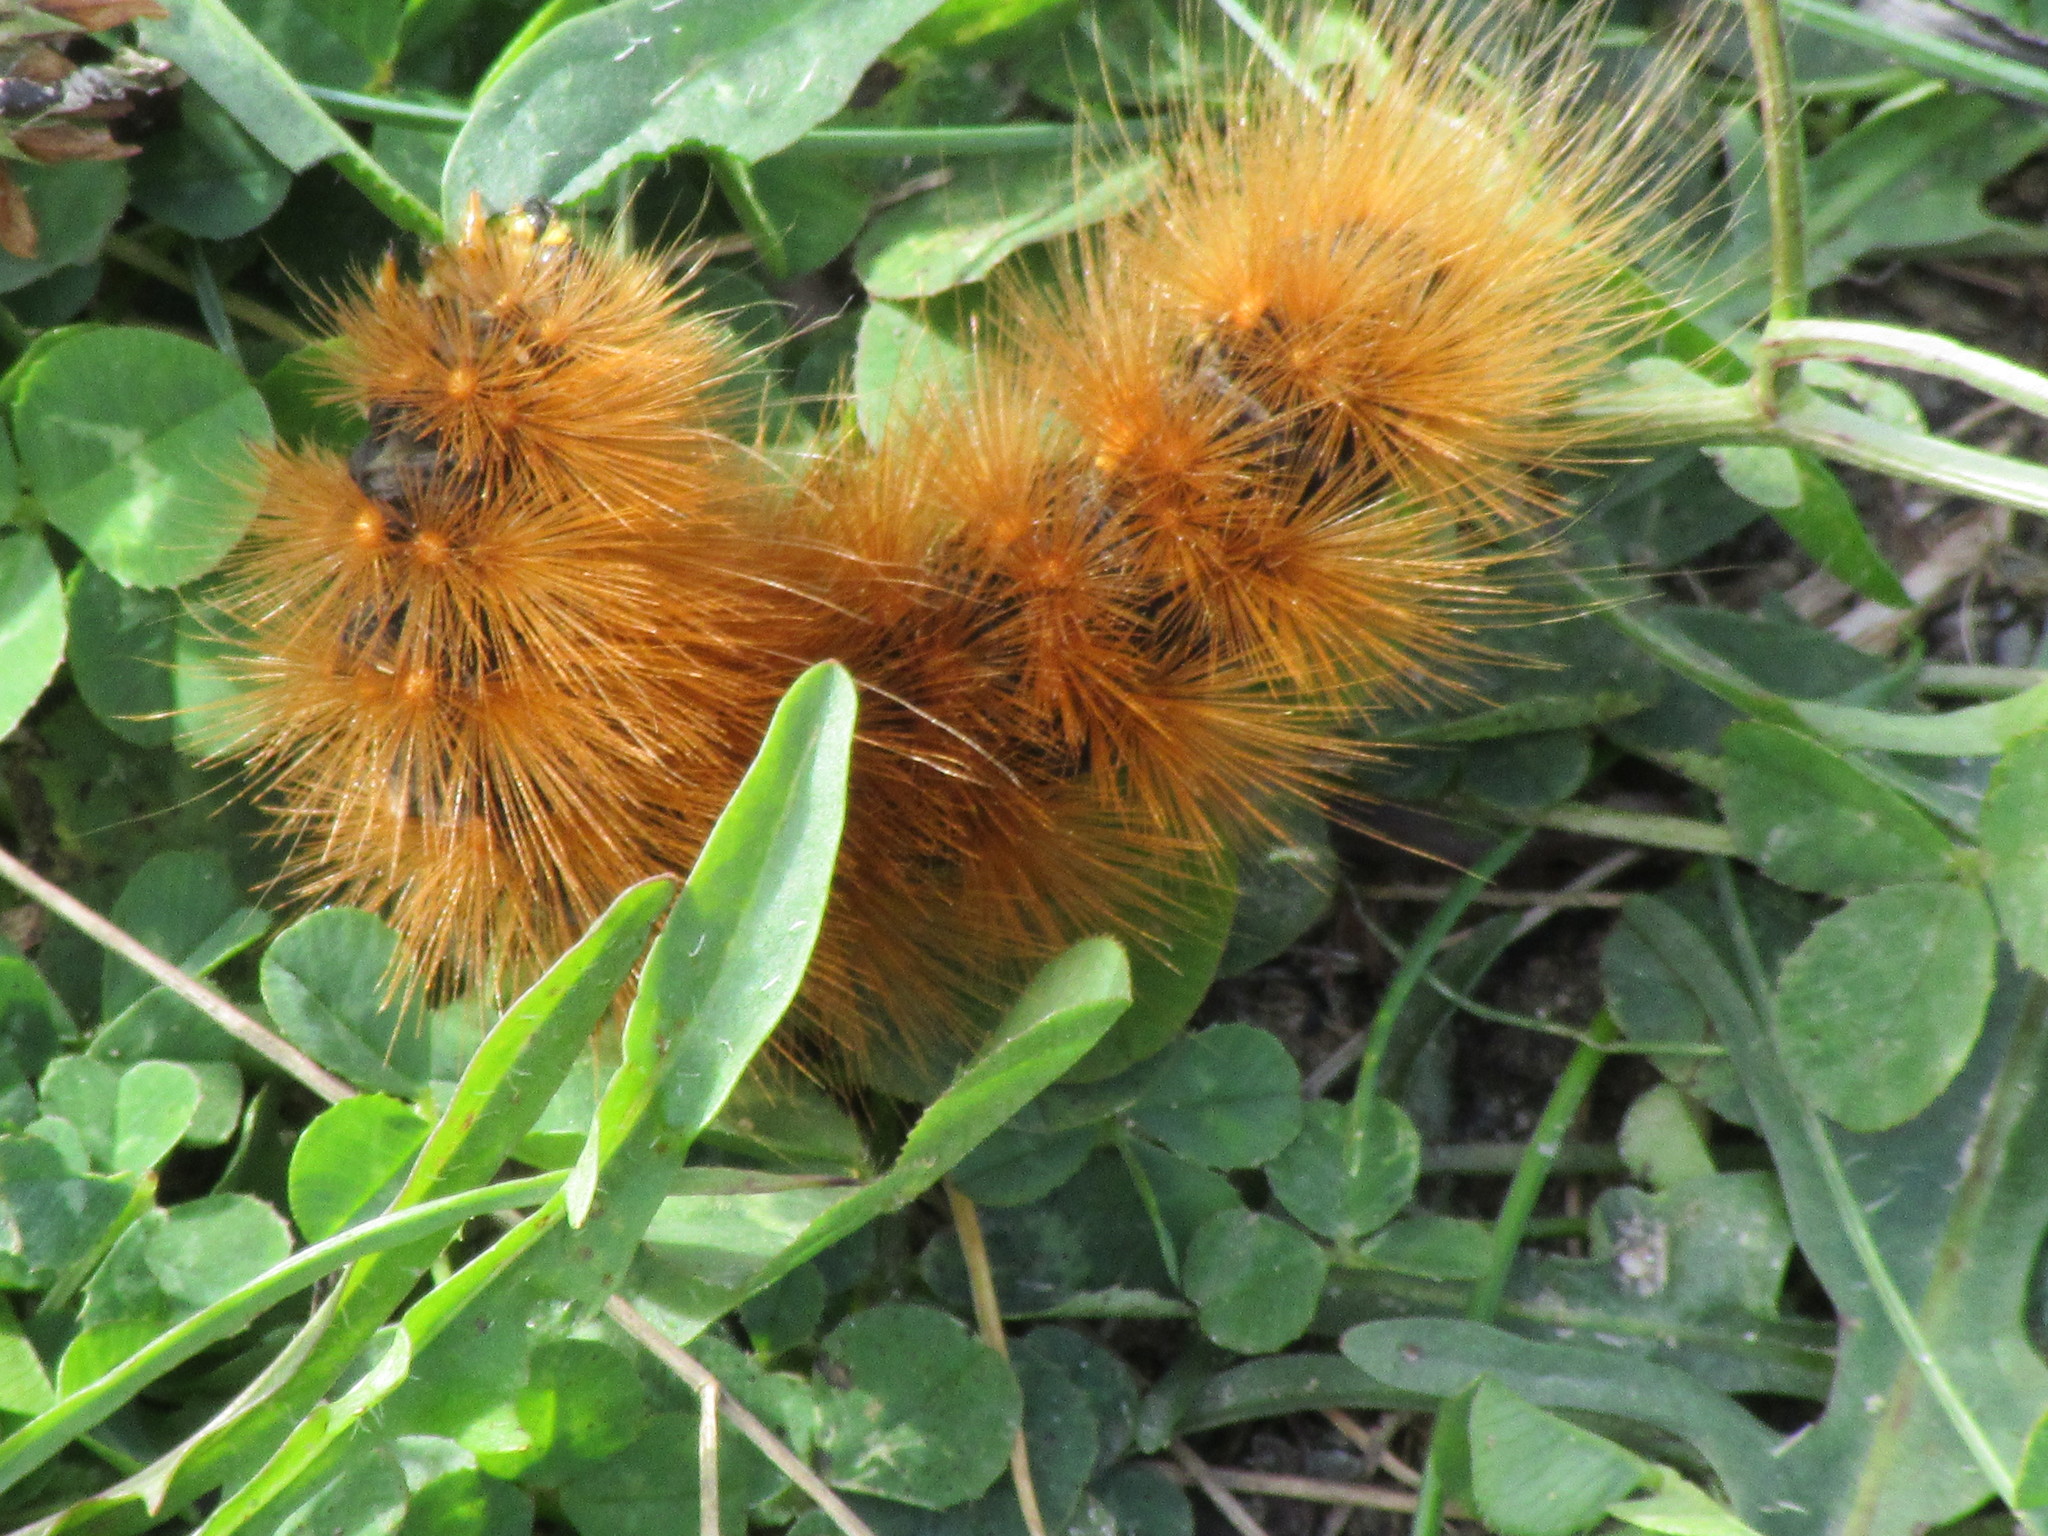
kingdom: Animalia
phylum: Arthropoda
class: Insecta
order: Lepidoptera
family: Erebidae
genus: Estigmene
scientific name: Estigmene acrea
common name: Salt marsh moth
